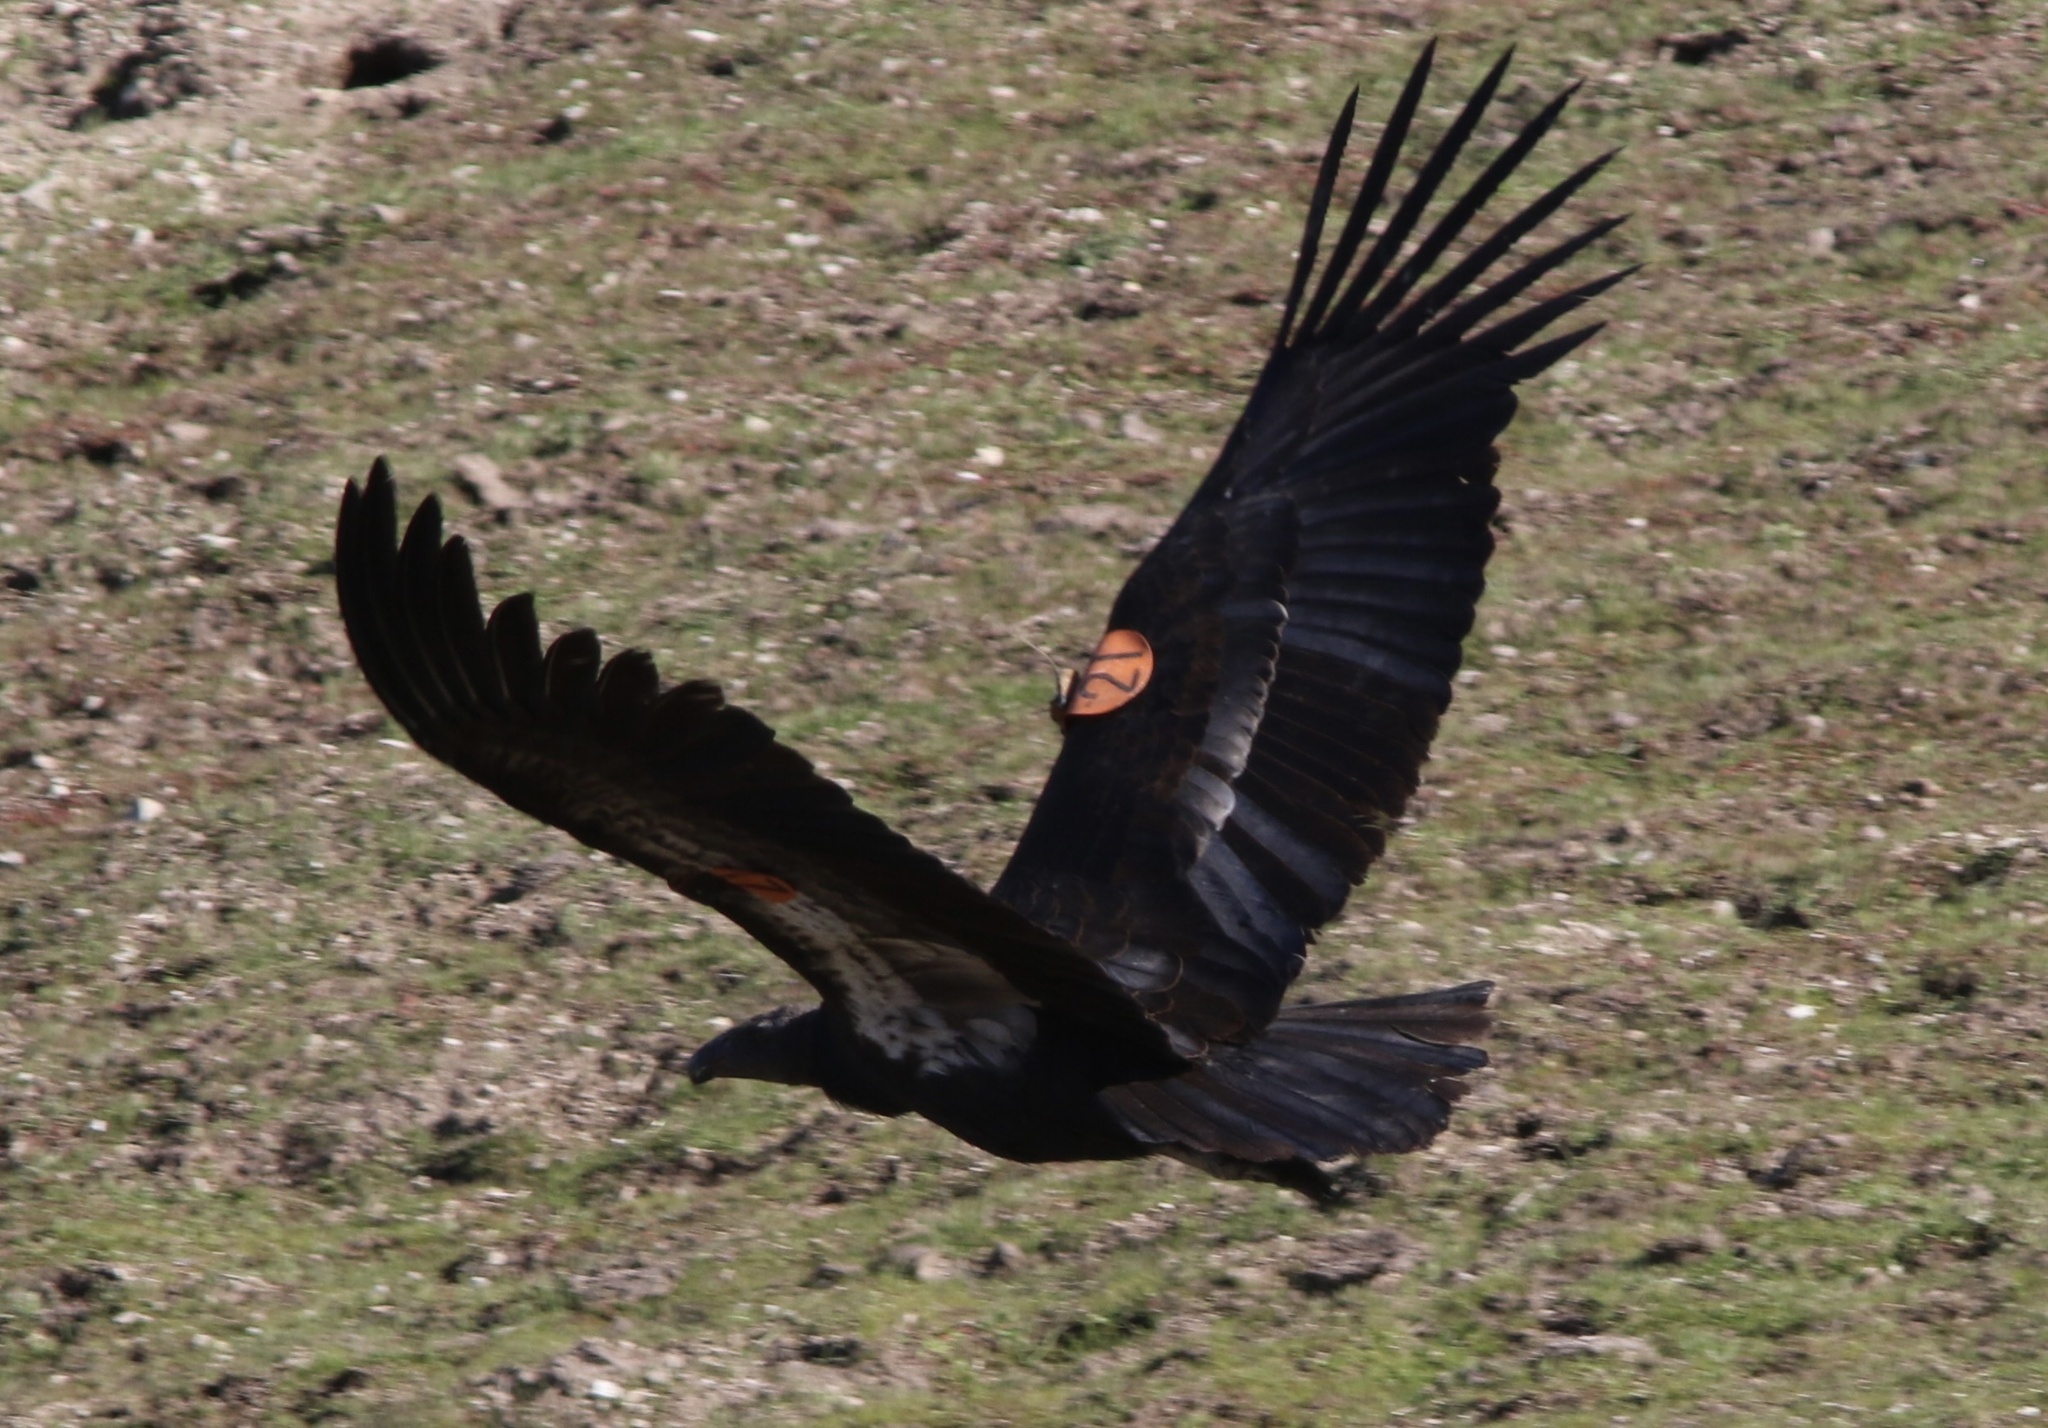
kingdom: Animalia
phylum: Chordata
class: Aves
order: Accipitriformes
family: Cathartidae
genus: Gymnogyps
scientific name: Gymnogyps californianus
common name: California condor
